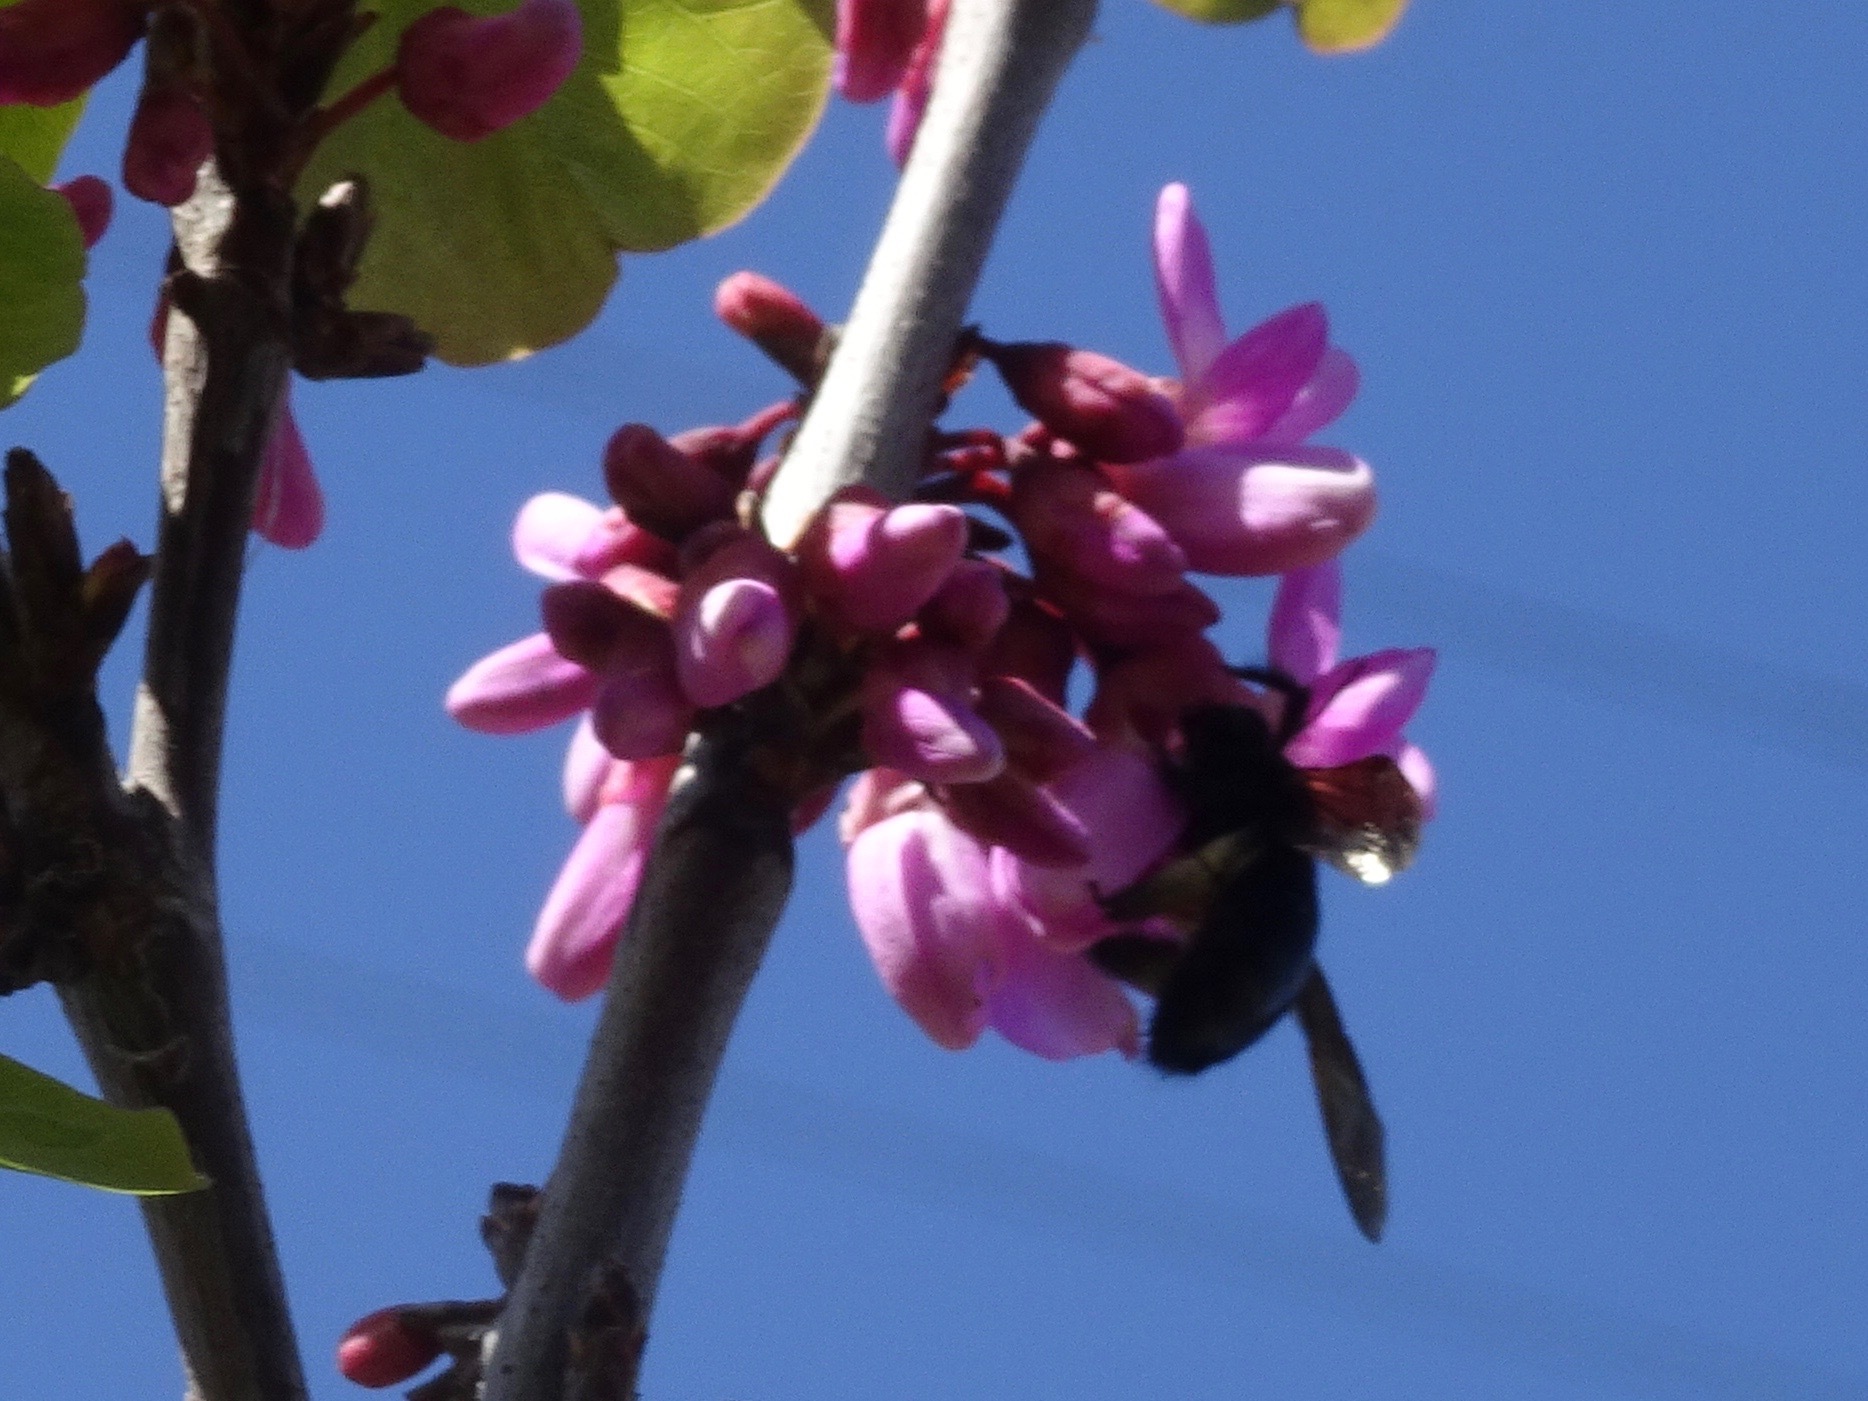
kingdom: Animalia
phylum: Arthropoda
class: Insecta
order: Hymenoptera
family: Apidae
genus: Xylocopa
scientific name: Xylocopa sonorina
